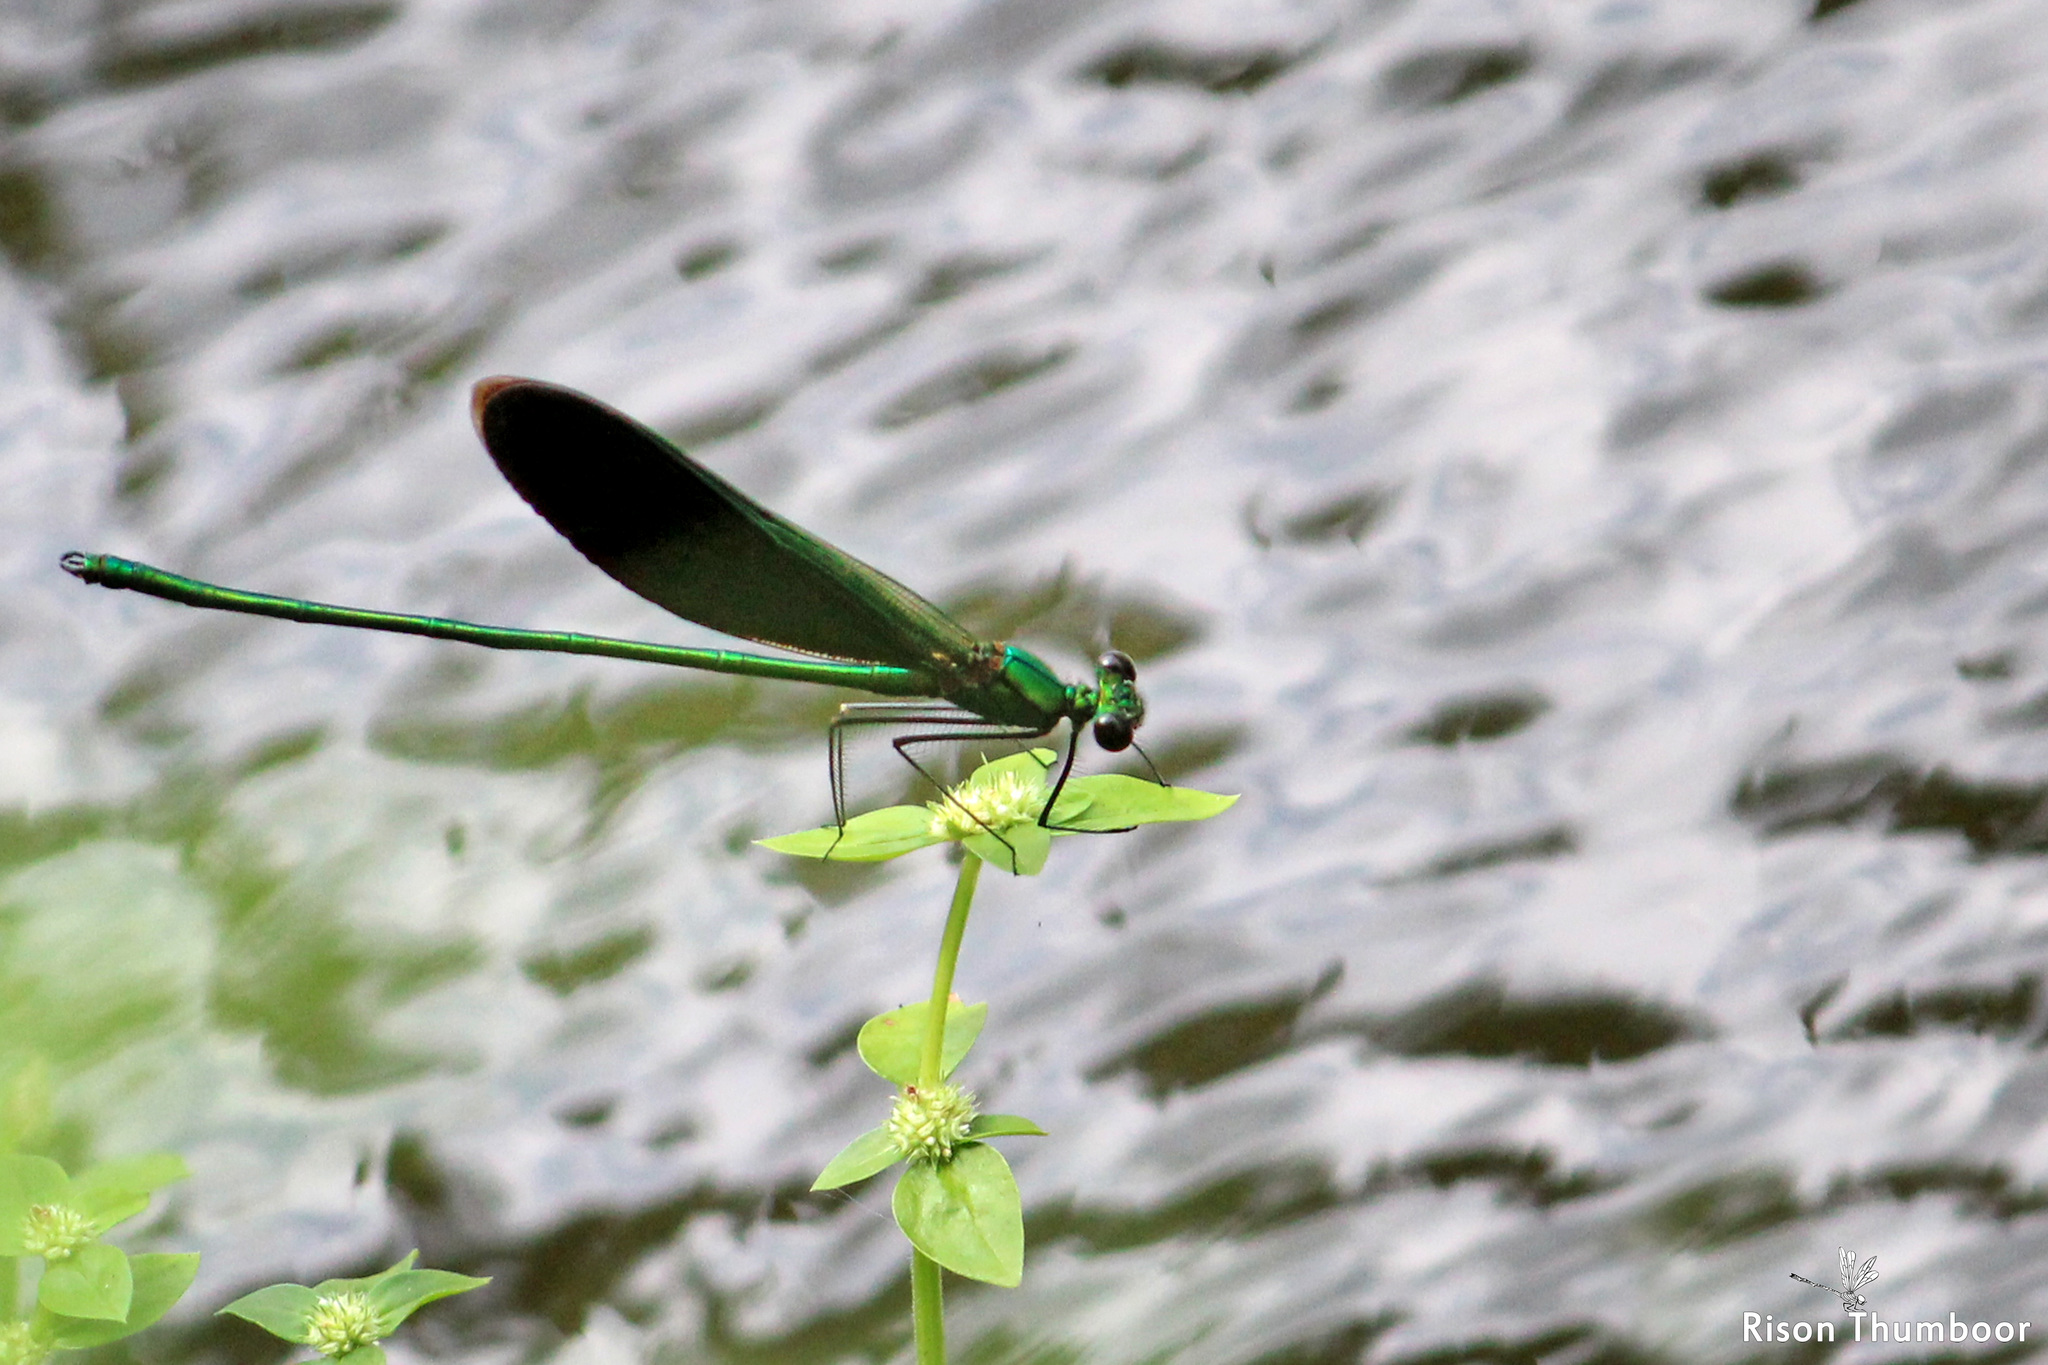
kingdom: Animalia
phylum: Arthropoda
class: Insecta
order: Odonata
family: Calopterygidae
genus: Neurobasis
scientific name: Neurobasis chinensis
